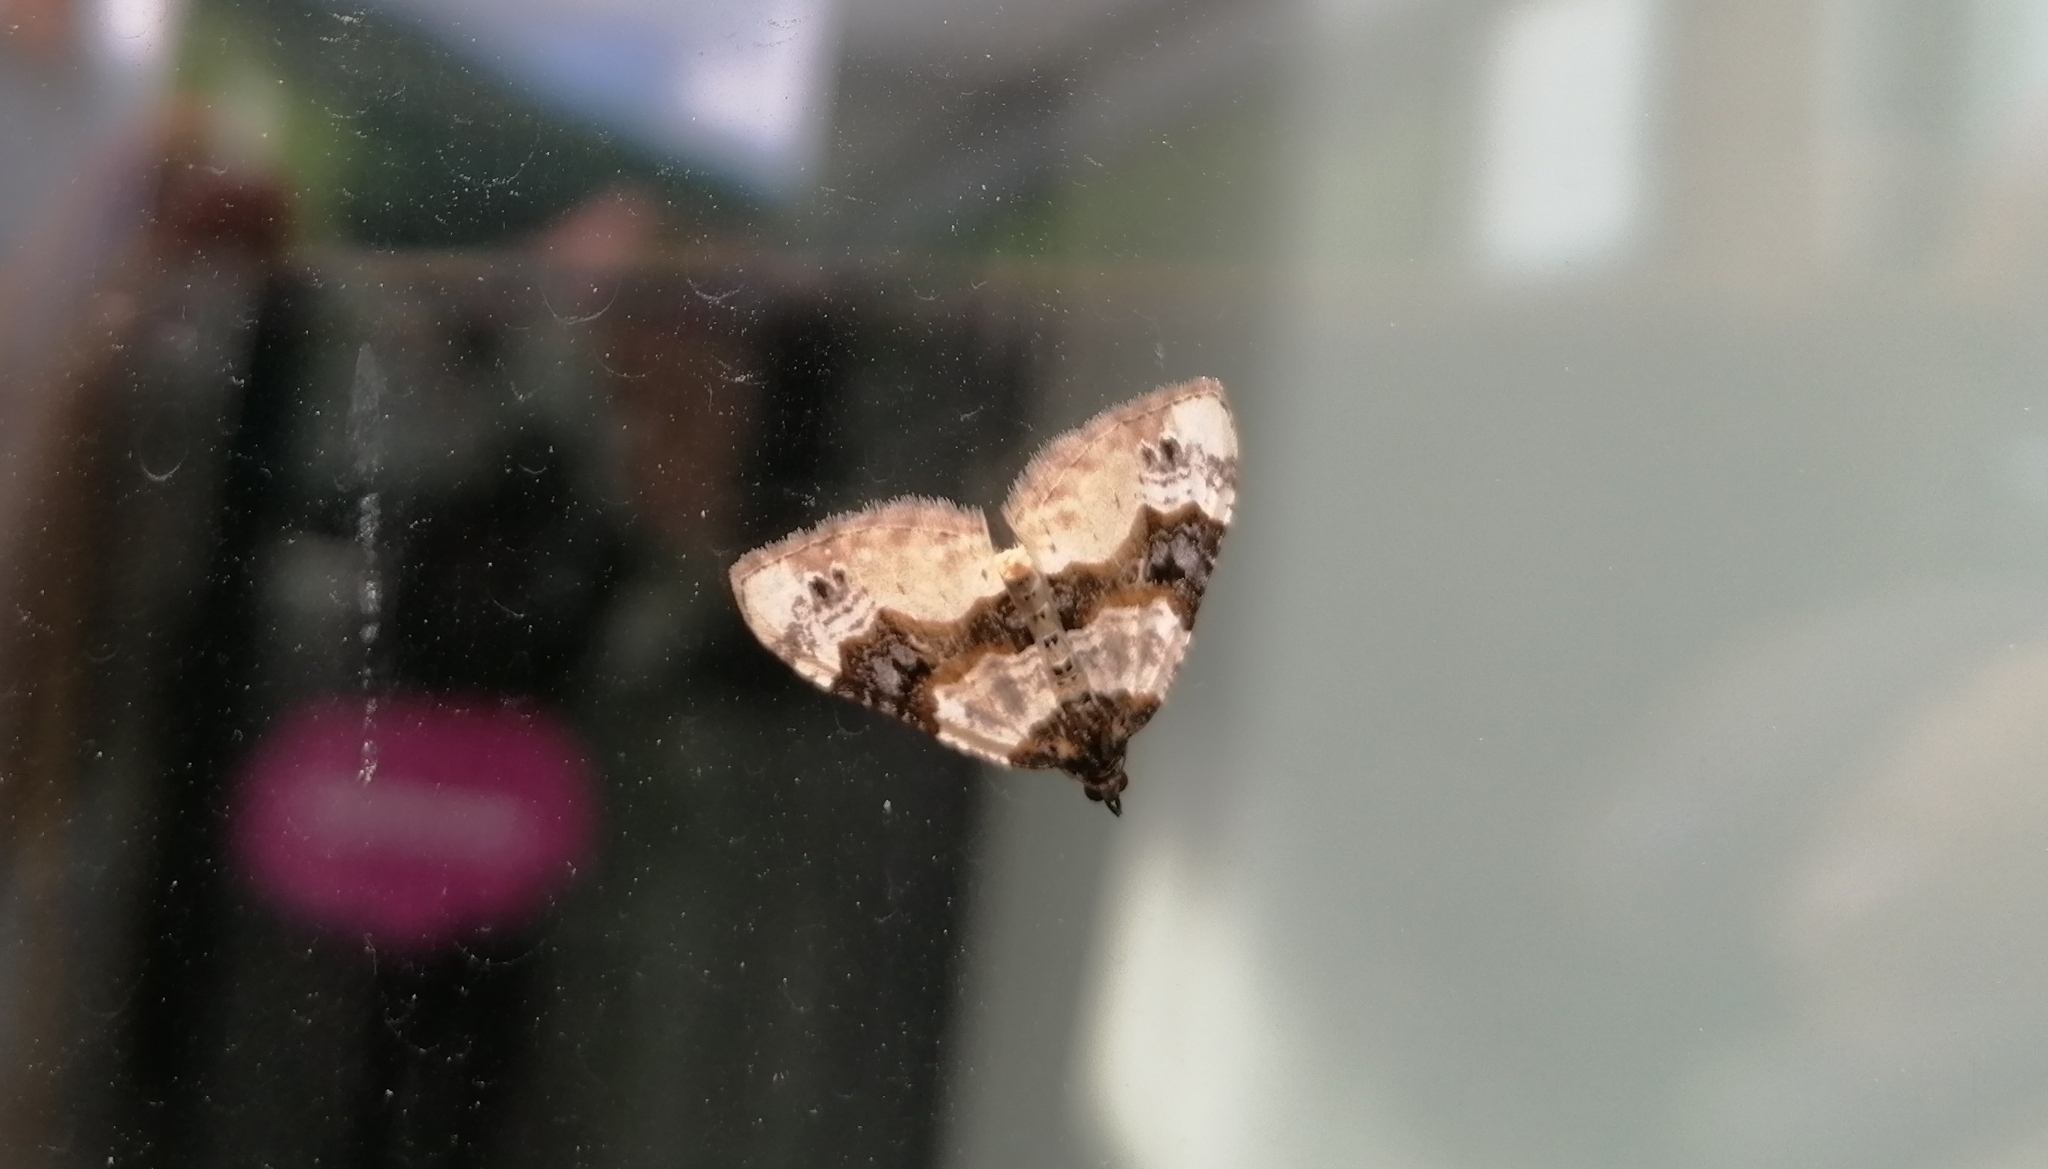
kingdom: Animalia
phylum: Arthropoda
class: Insecta
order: Lepidoptera
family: Geometridae
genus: Cosmorhoe
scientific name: Cosmorhoe ocellata
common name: Purple bar
